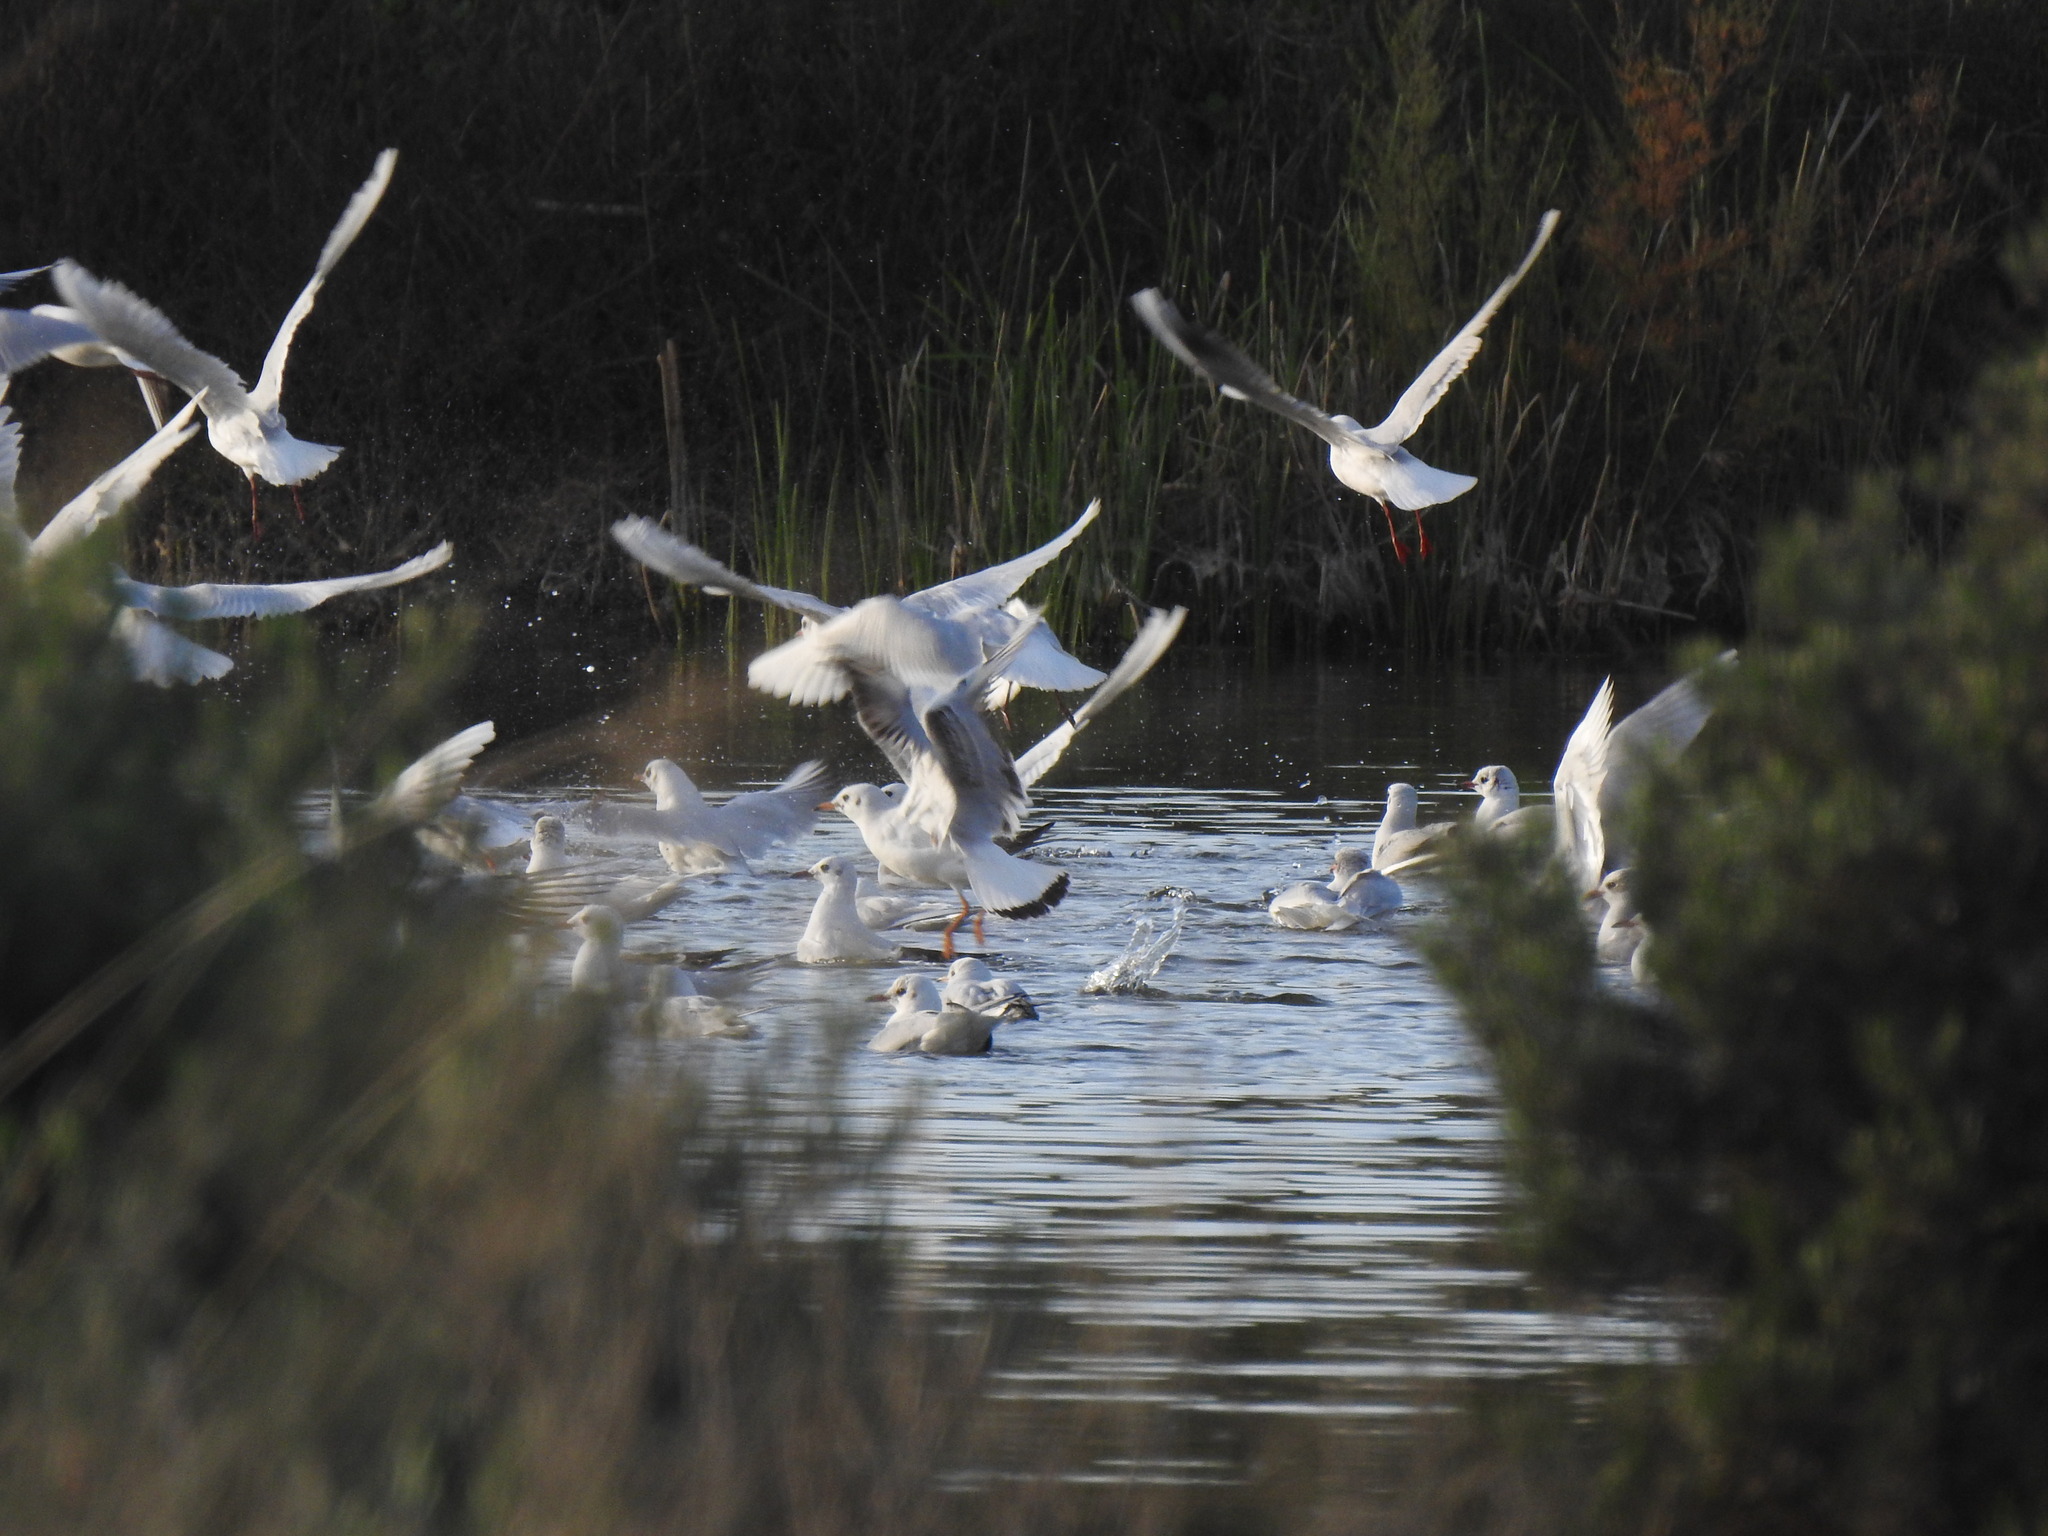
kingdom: Animalia
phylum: Chordata
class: Aves
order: Charadriiformes
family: Laridae
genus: Chroicocephalus
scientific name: Chroicocephalus ridibundus
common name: Black-headed gull
